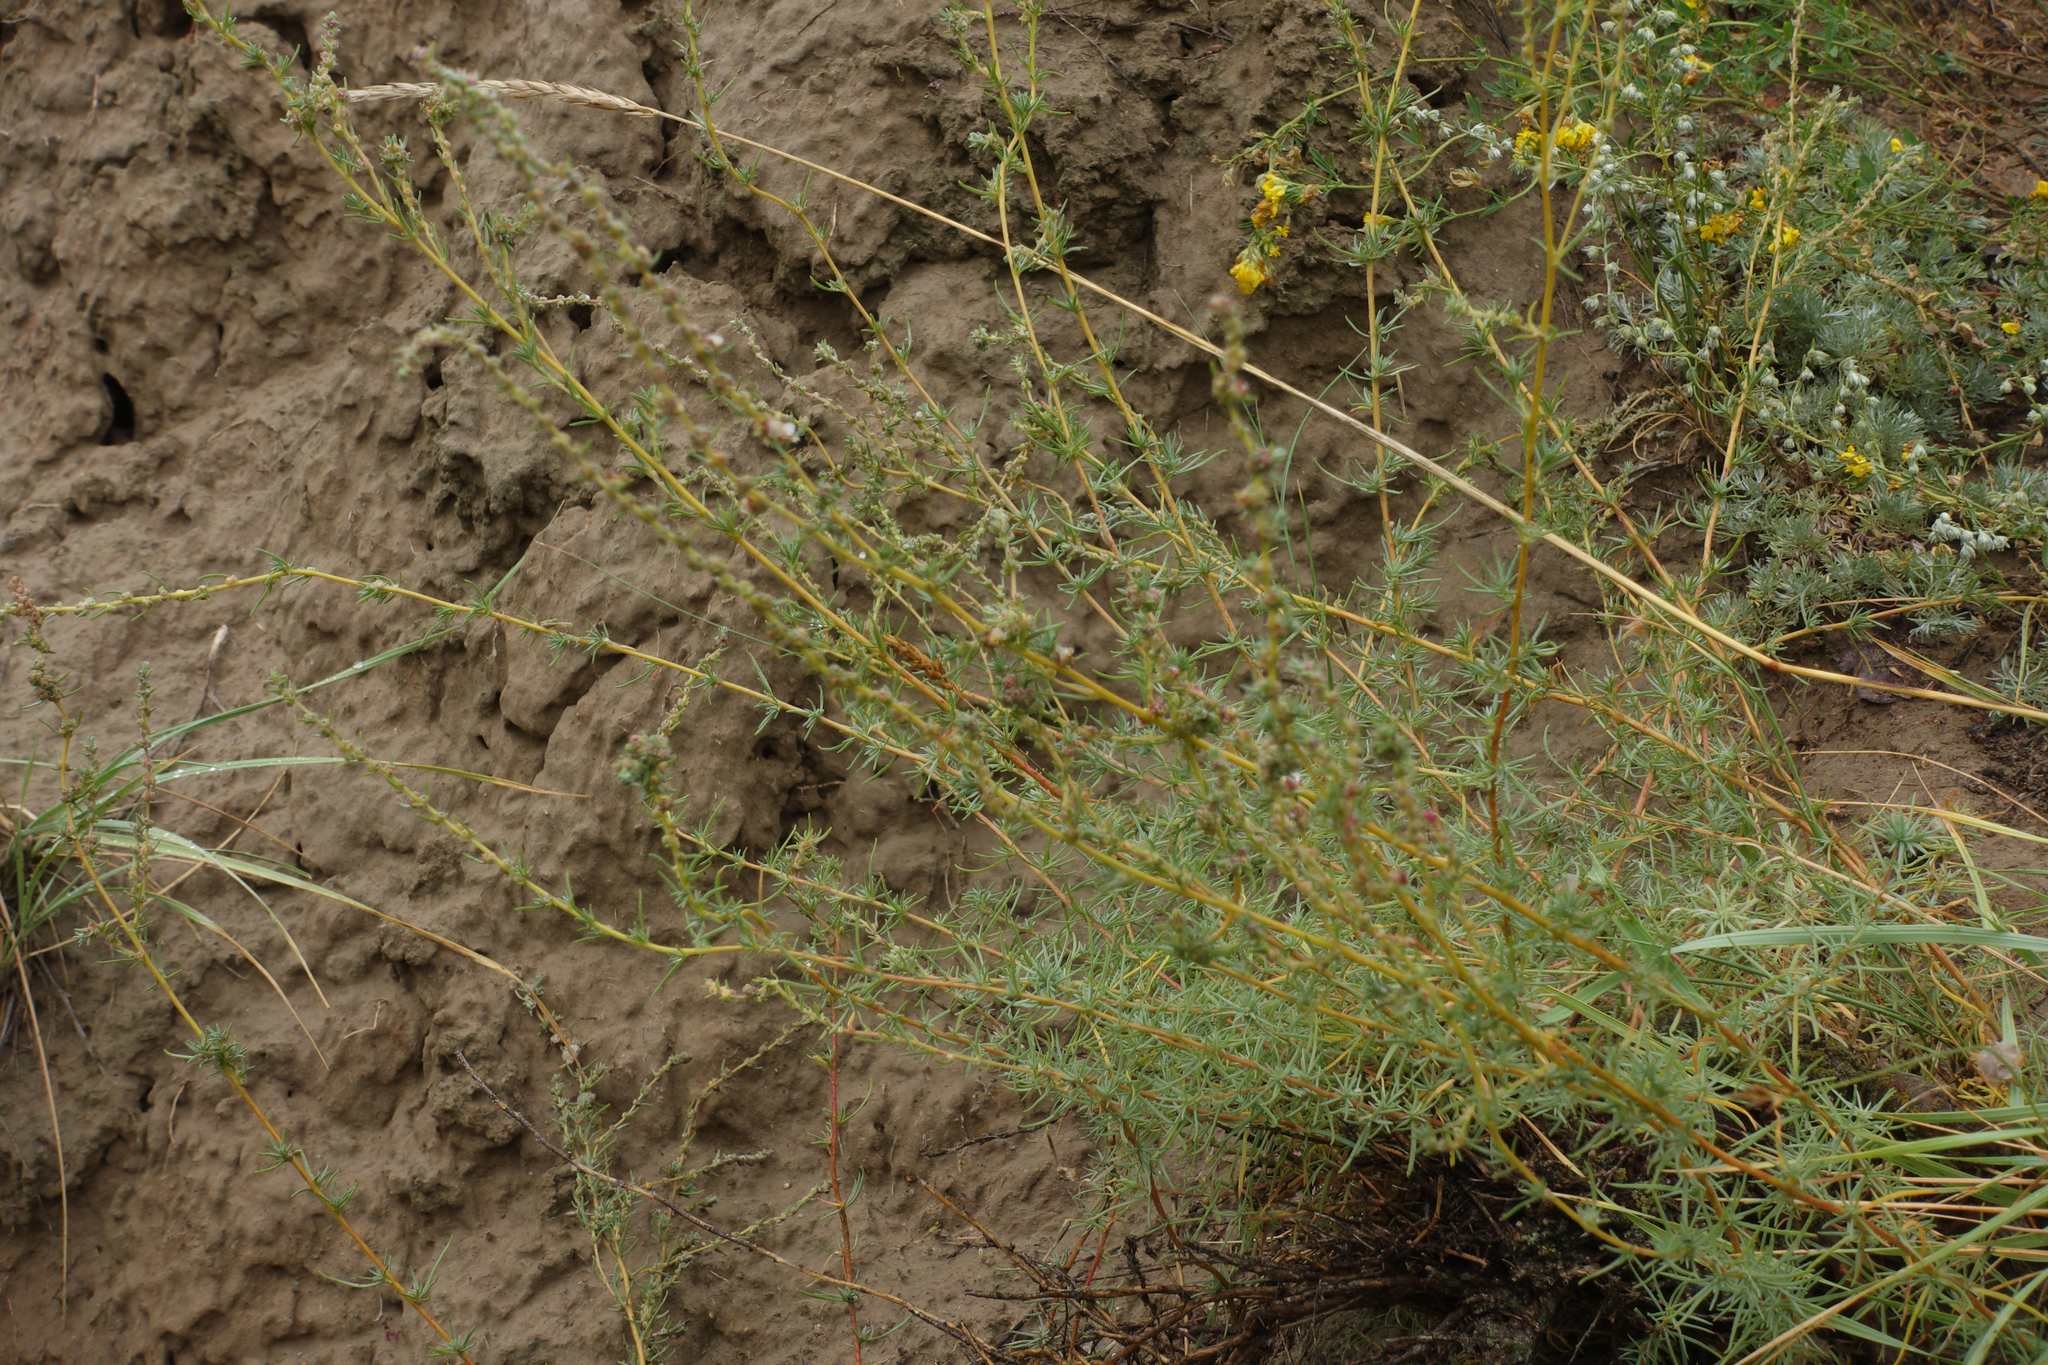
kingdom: Plantae
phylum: Tracheophyta
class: Magnoliopsida
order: Caryophyllales
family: Amaranthaceae
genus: Bassia
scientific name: Bassia prostrata
